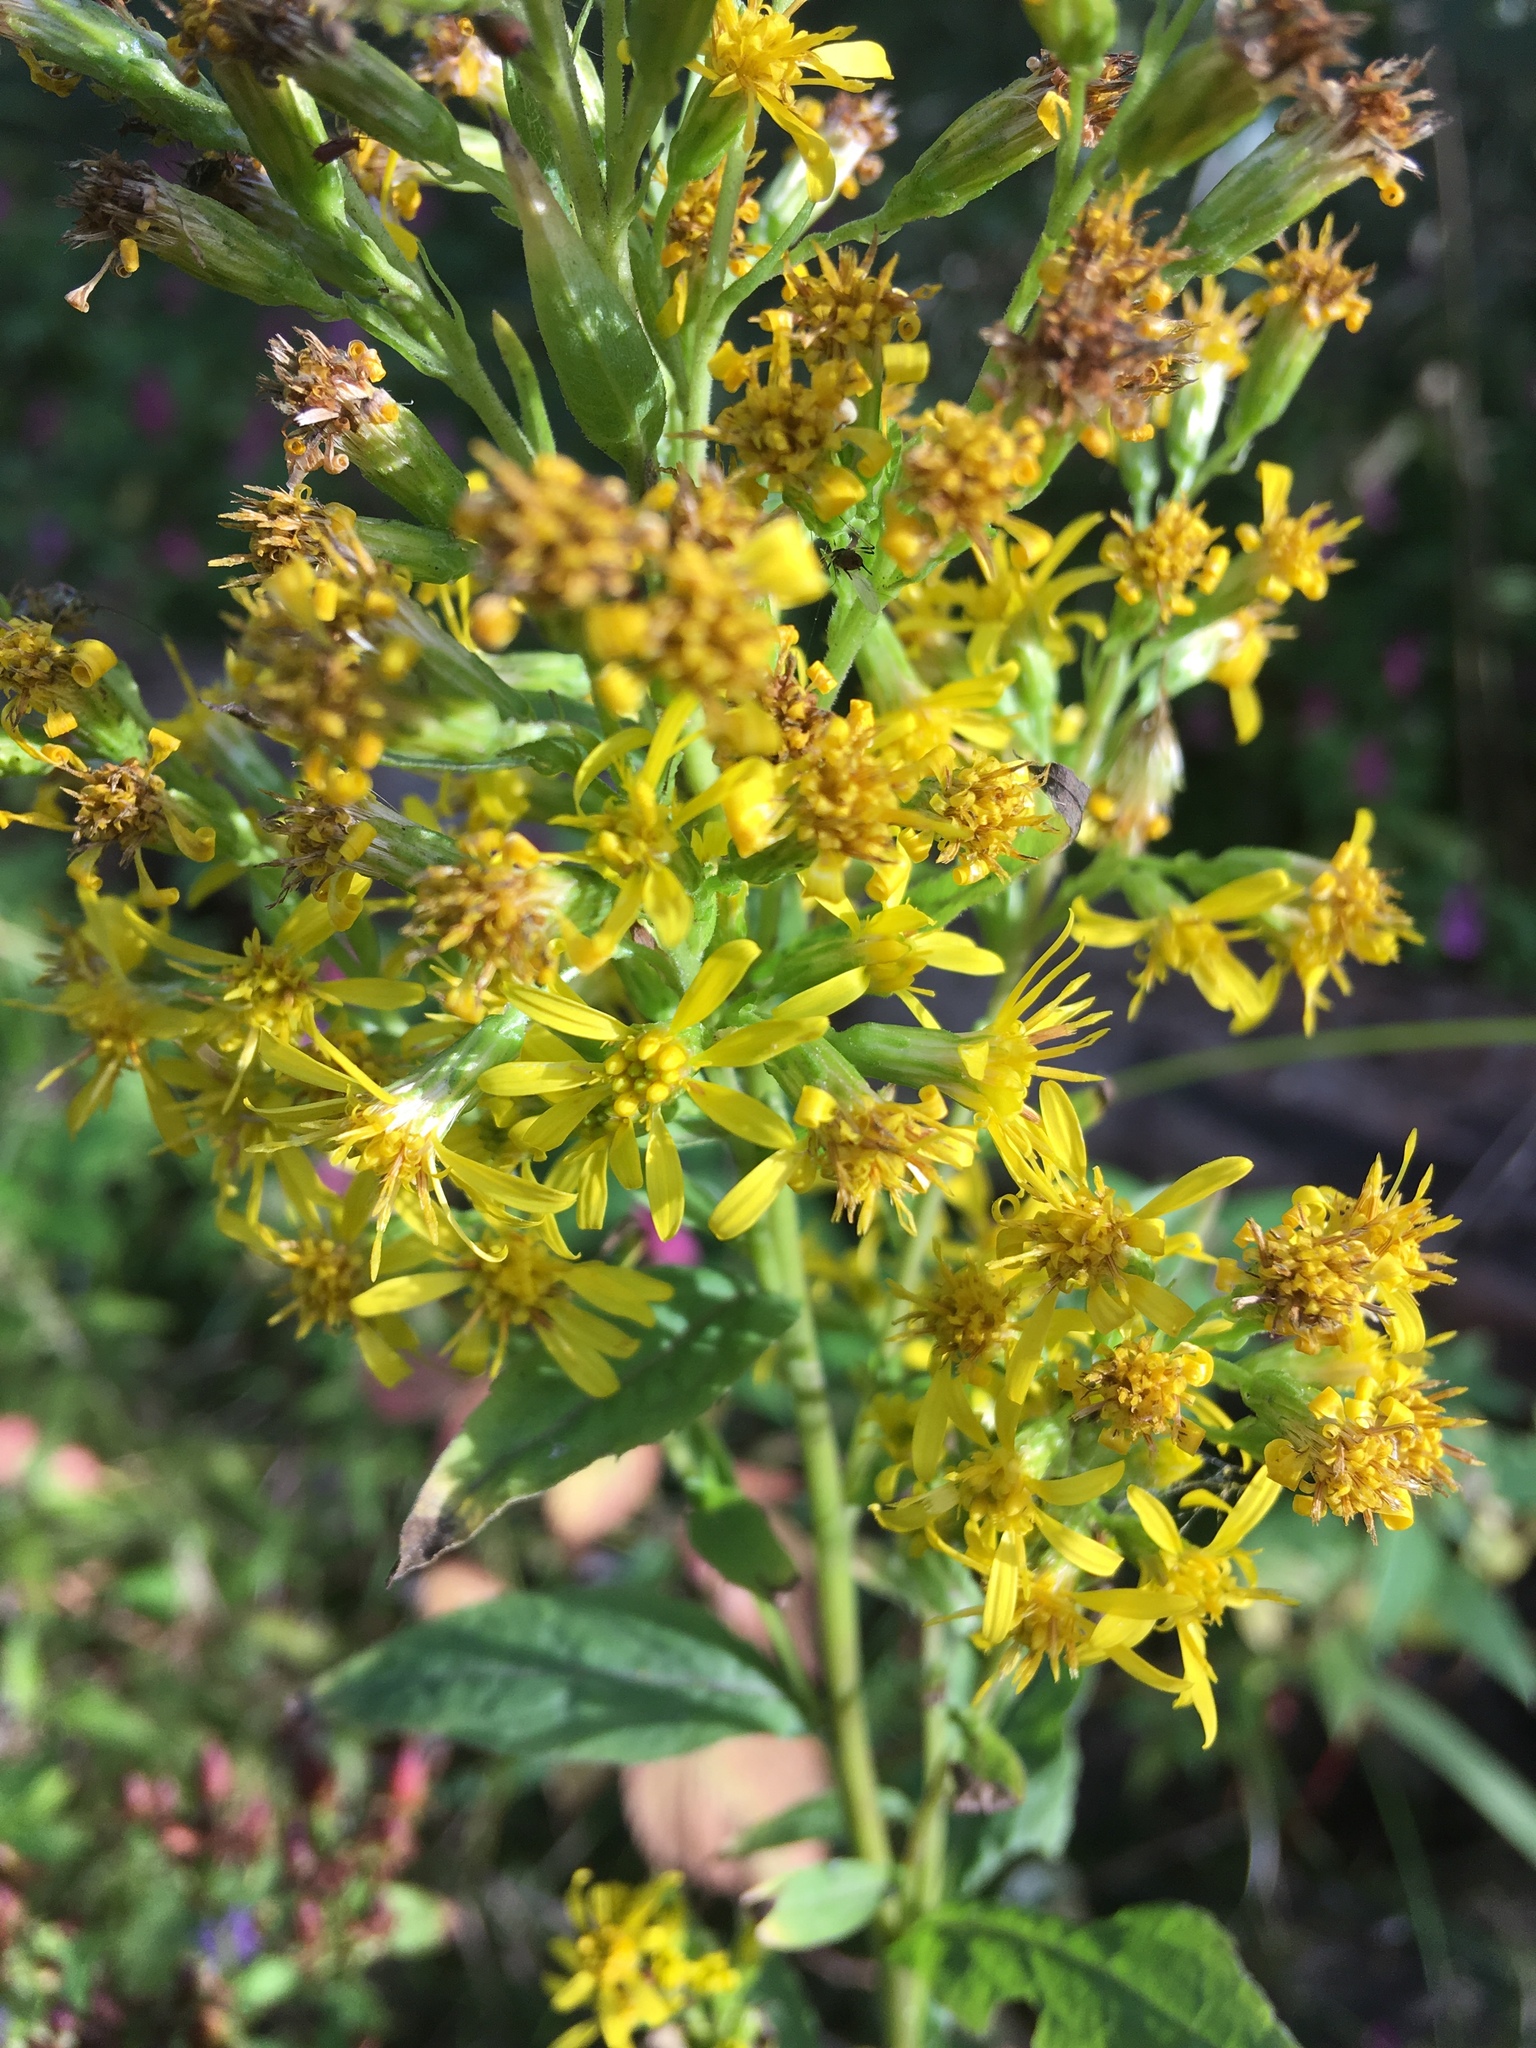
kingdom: Plantae
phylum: Tracheophyta
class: Magnoliopsida
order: Asterales
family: Asteraceae
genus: Solidago
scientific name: Solidago virgaurea
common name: Goldenrod
